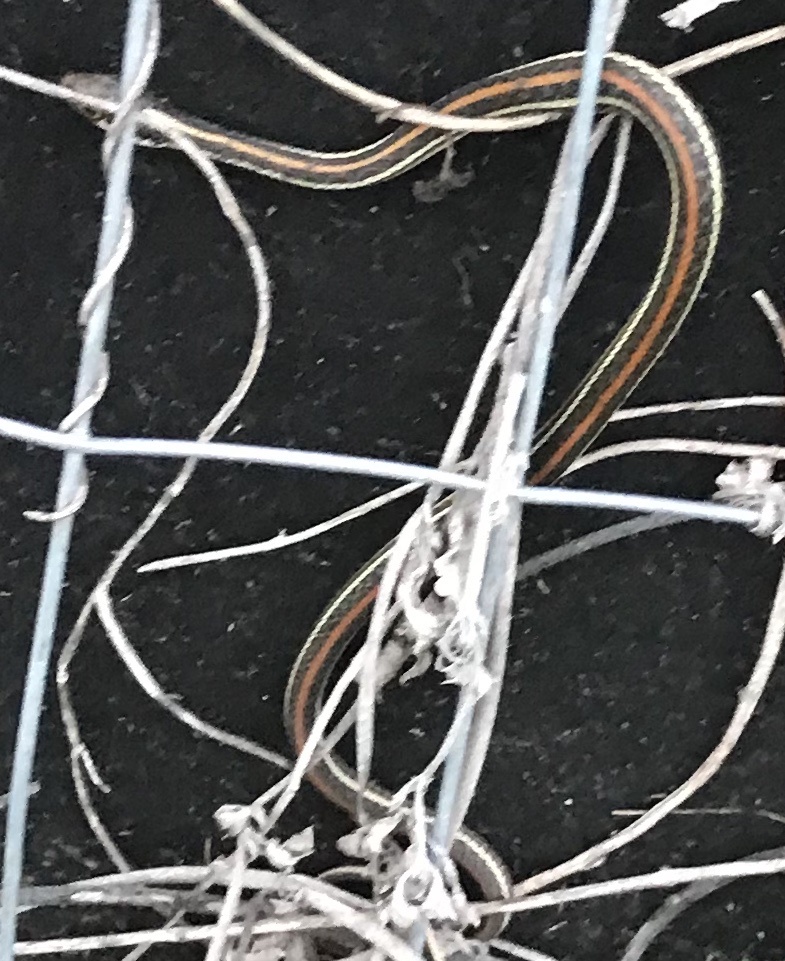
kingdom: Animalia
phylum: Chordata
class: Squamata
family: Colubridae
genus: Thamnophis
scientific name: Thamnophis proximus
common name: Western ribbon snake
